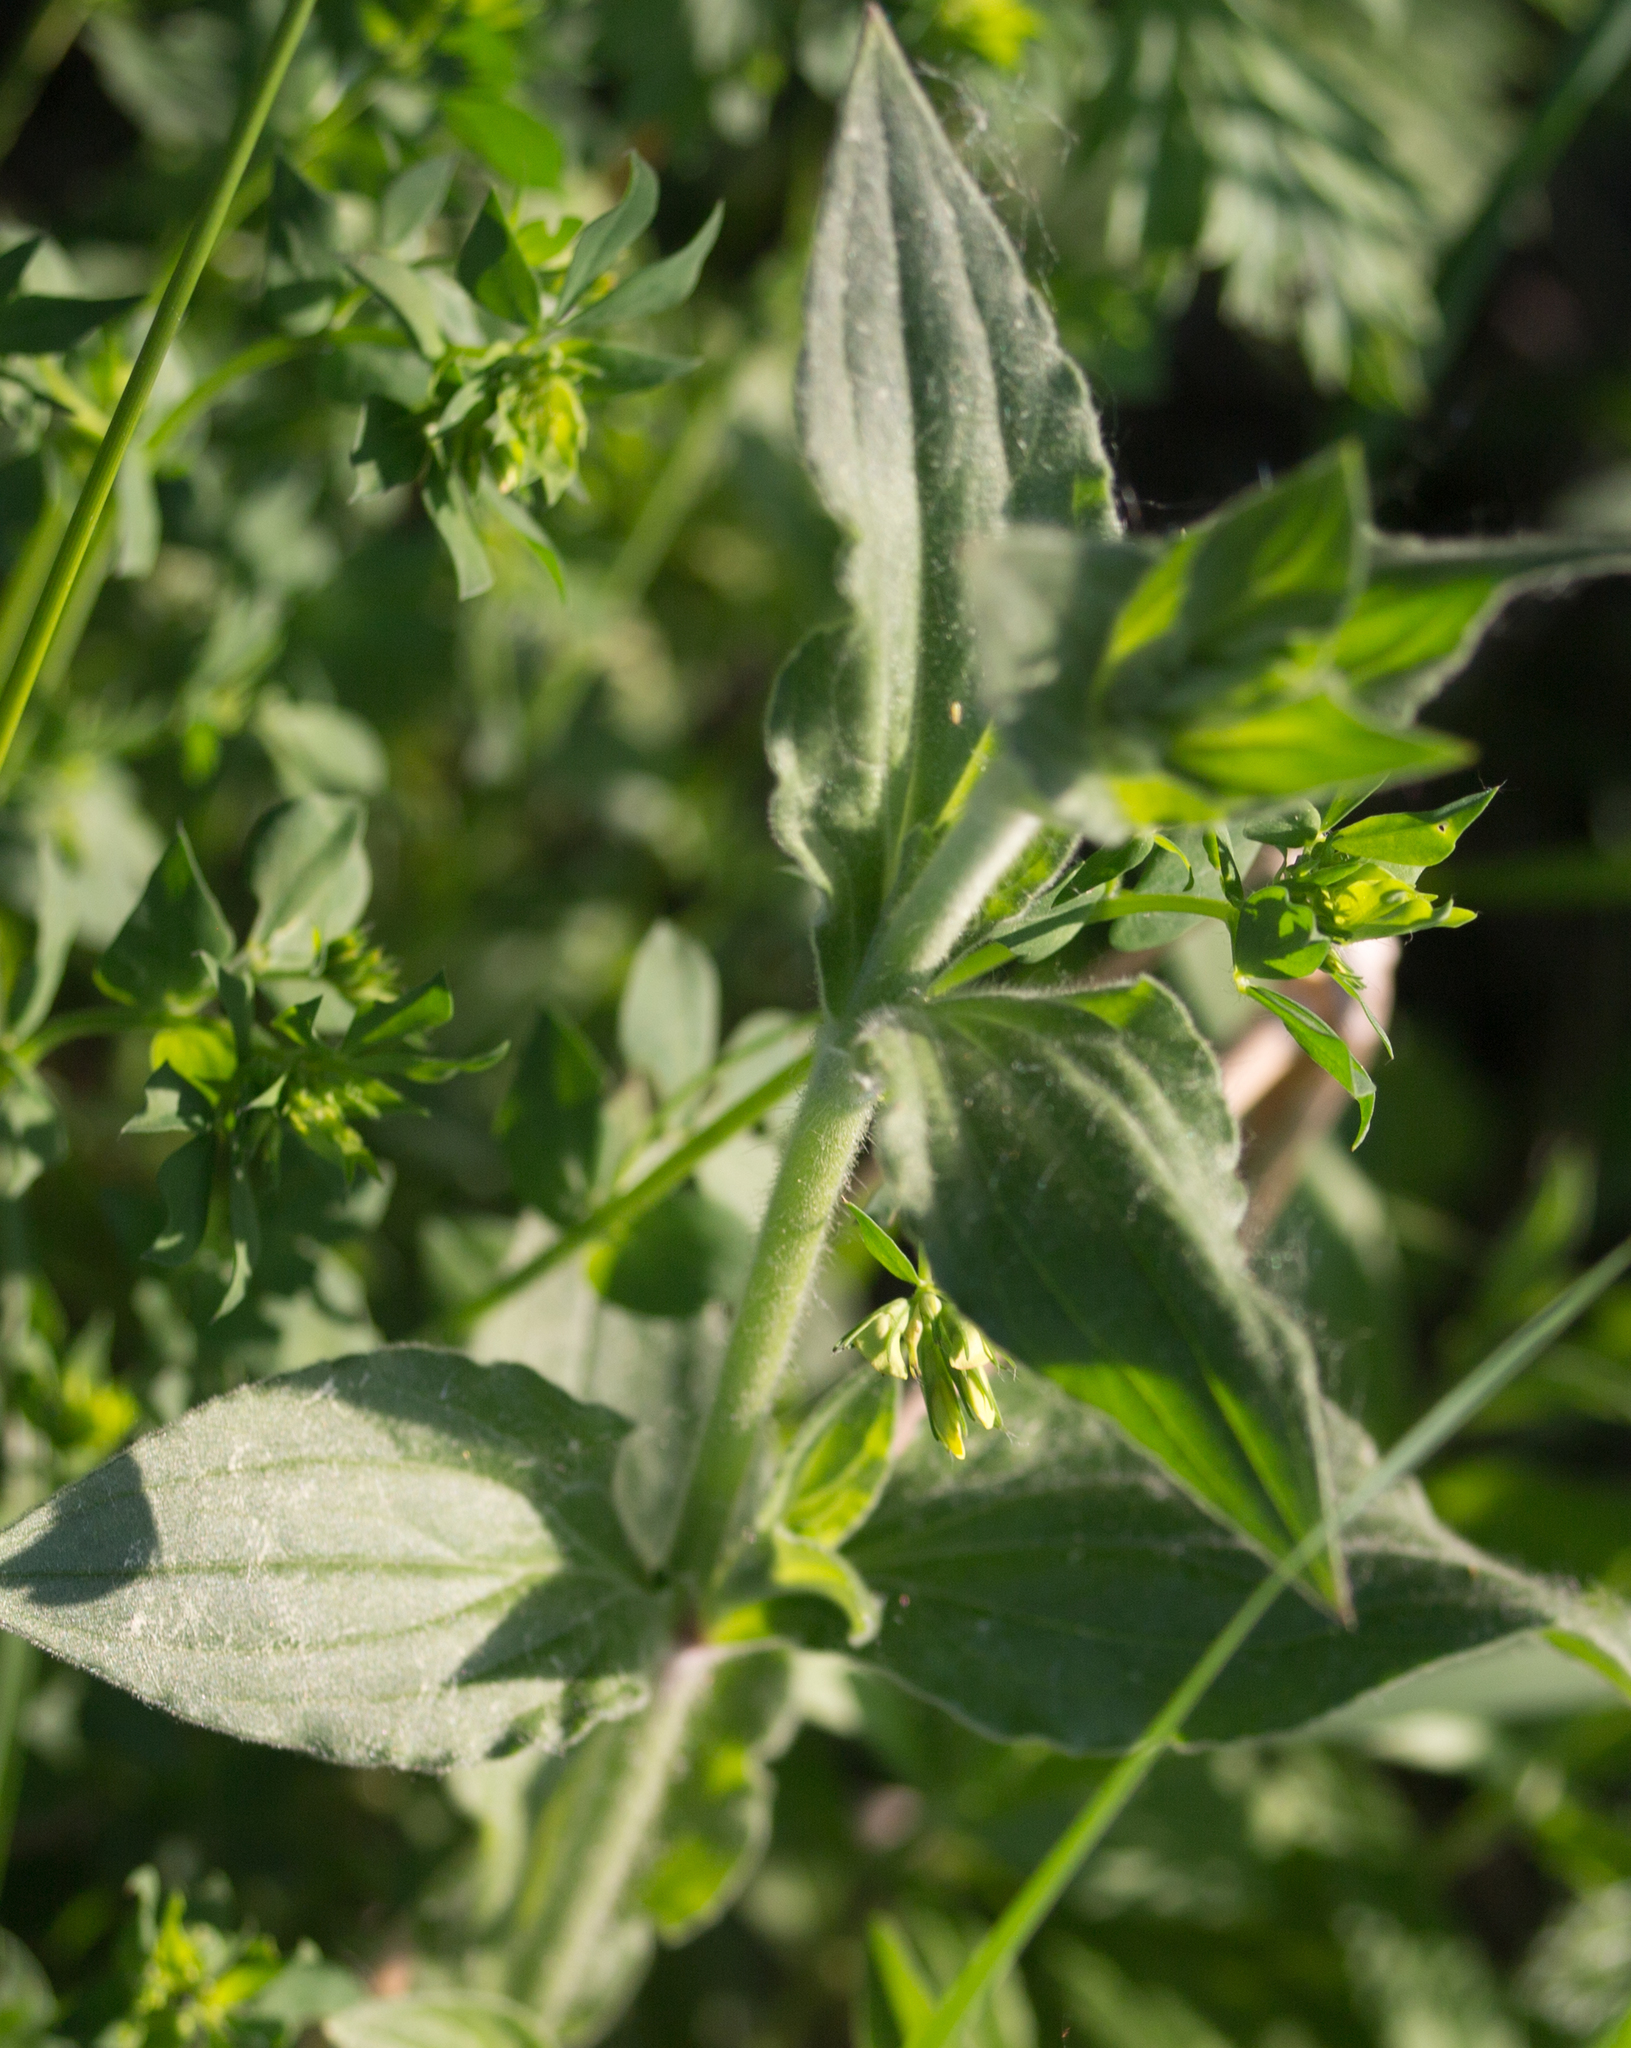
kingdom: Plantae
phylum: Tracheophyta
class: Magnoliopsida
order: Caryophyllales
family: Caryophyllaceae
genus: Silene
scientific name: Silene latifolia
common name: White campion
